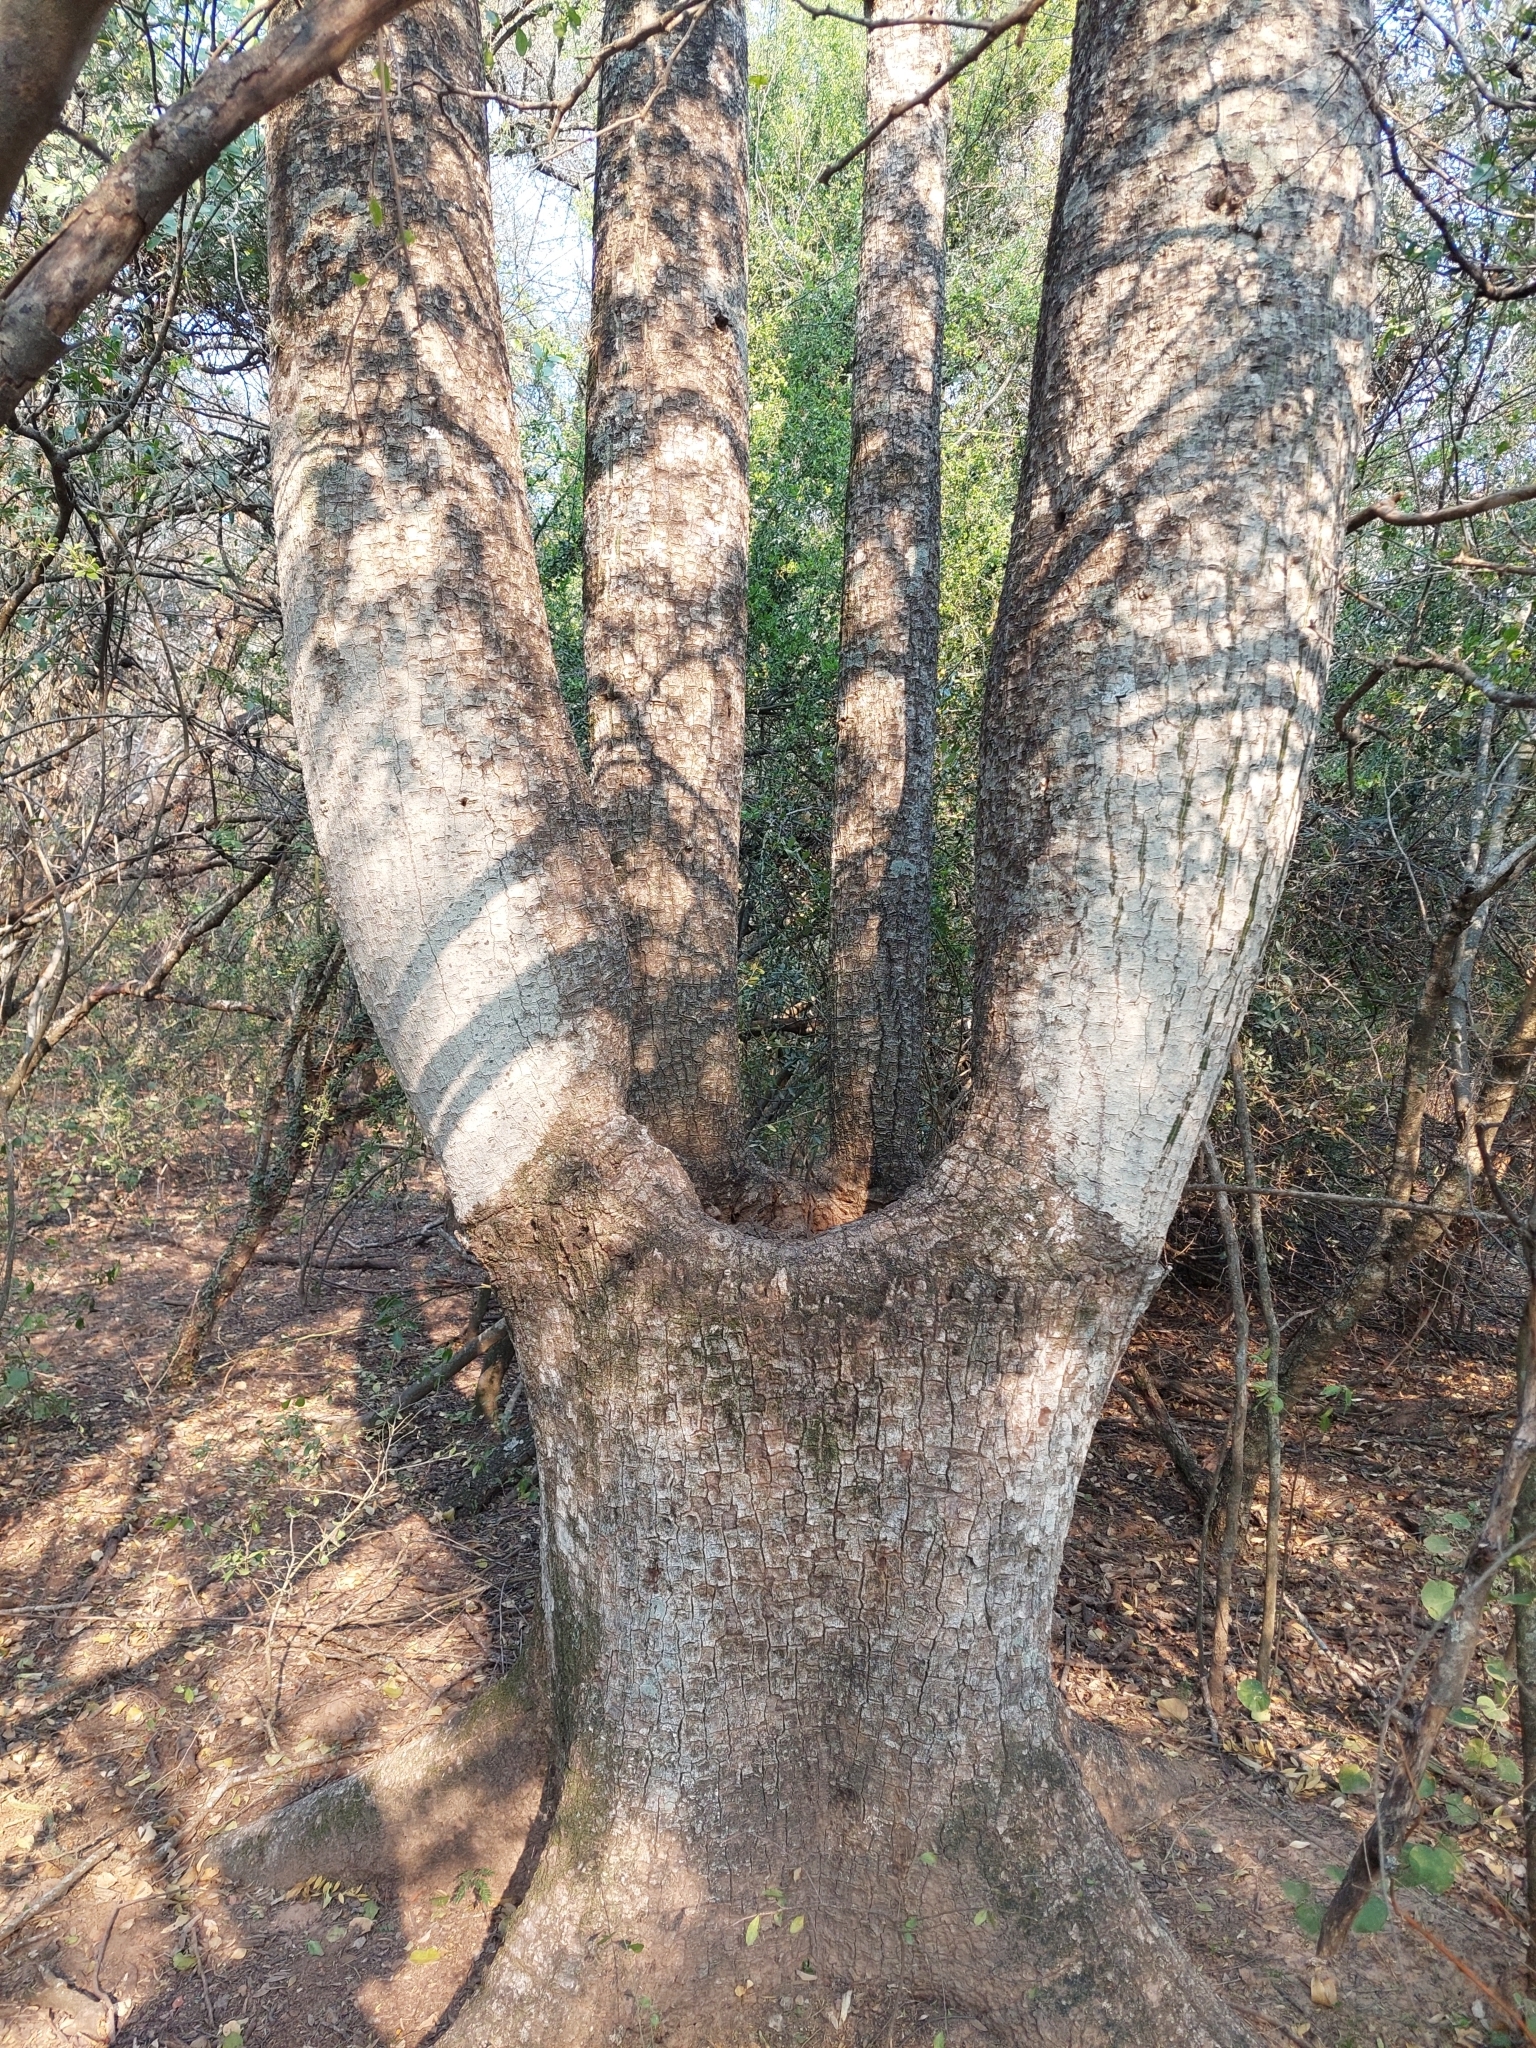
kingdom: Plantae
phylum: Tracheophyta
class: Magnoliopsida
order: Malvales
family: Malvaceae
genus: Ceiba
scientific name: Ceiba chodatii
